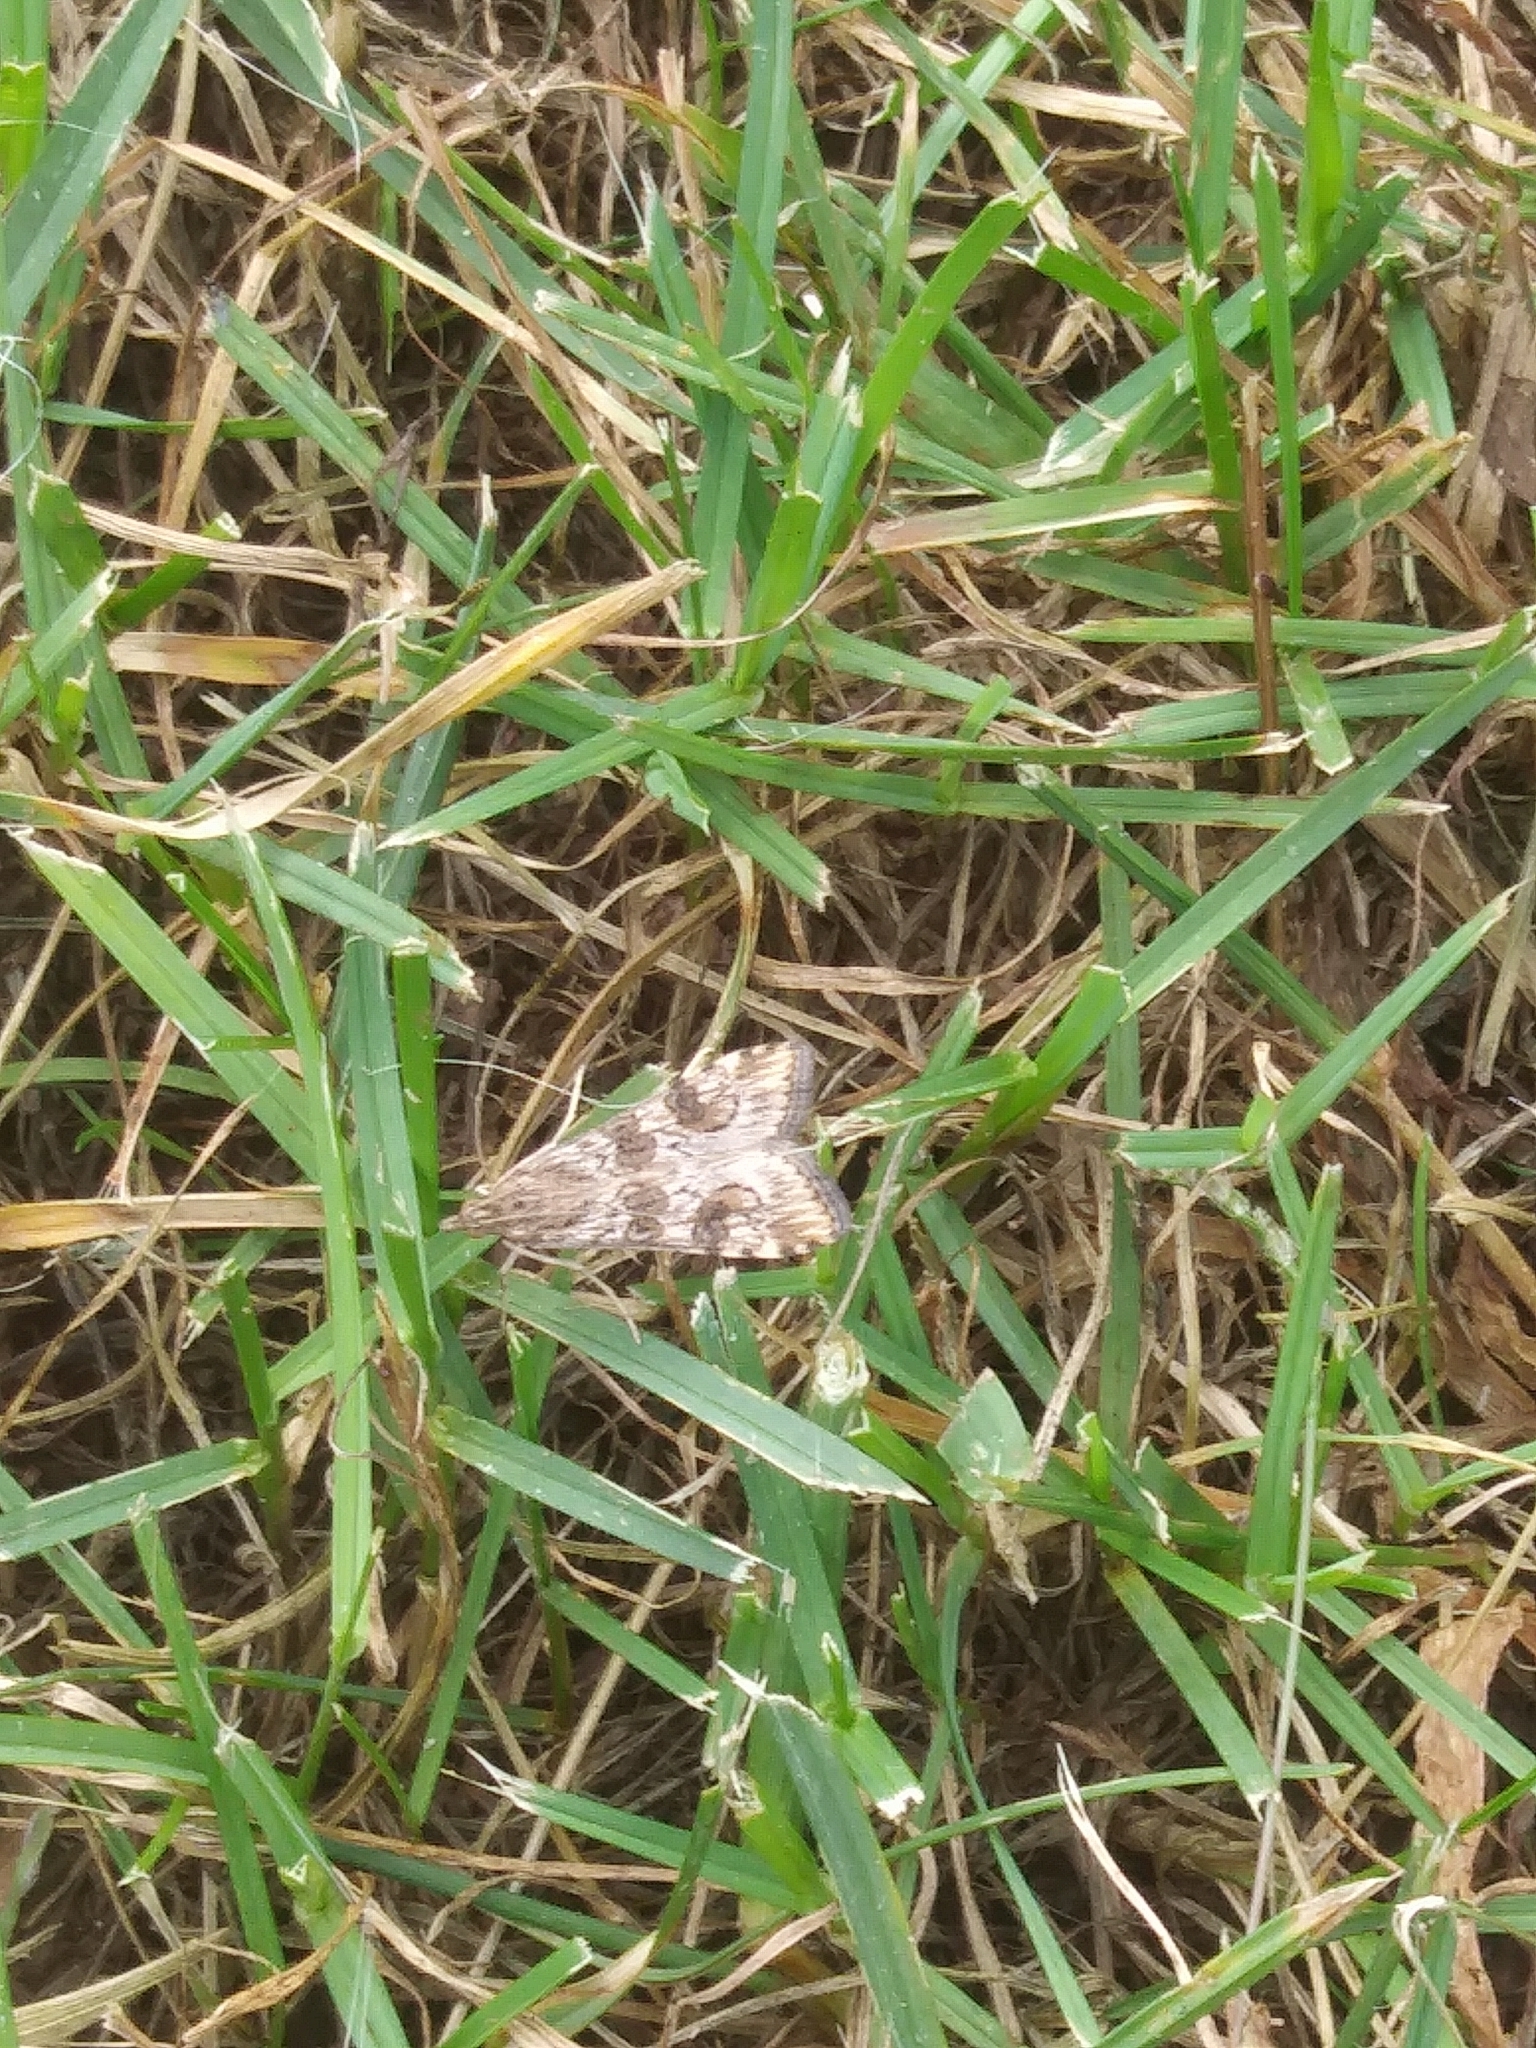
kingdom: Animalia
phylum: Arthropoda
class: Insecta
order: Lepidoptera
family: Crambidae
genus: Nomophila
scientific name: Nomophila nearctica
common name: American rush veneer
